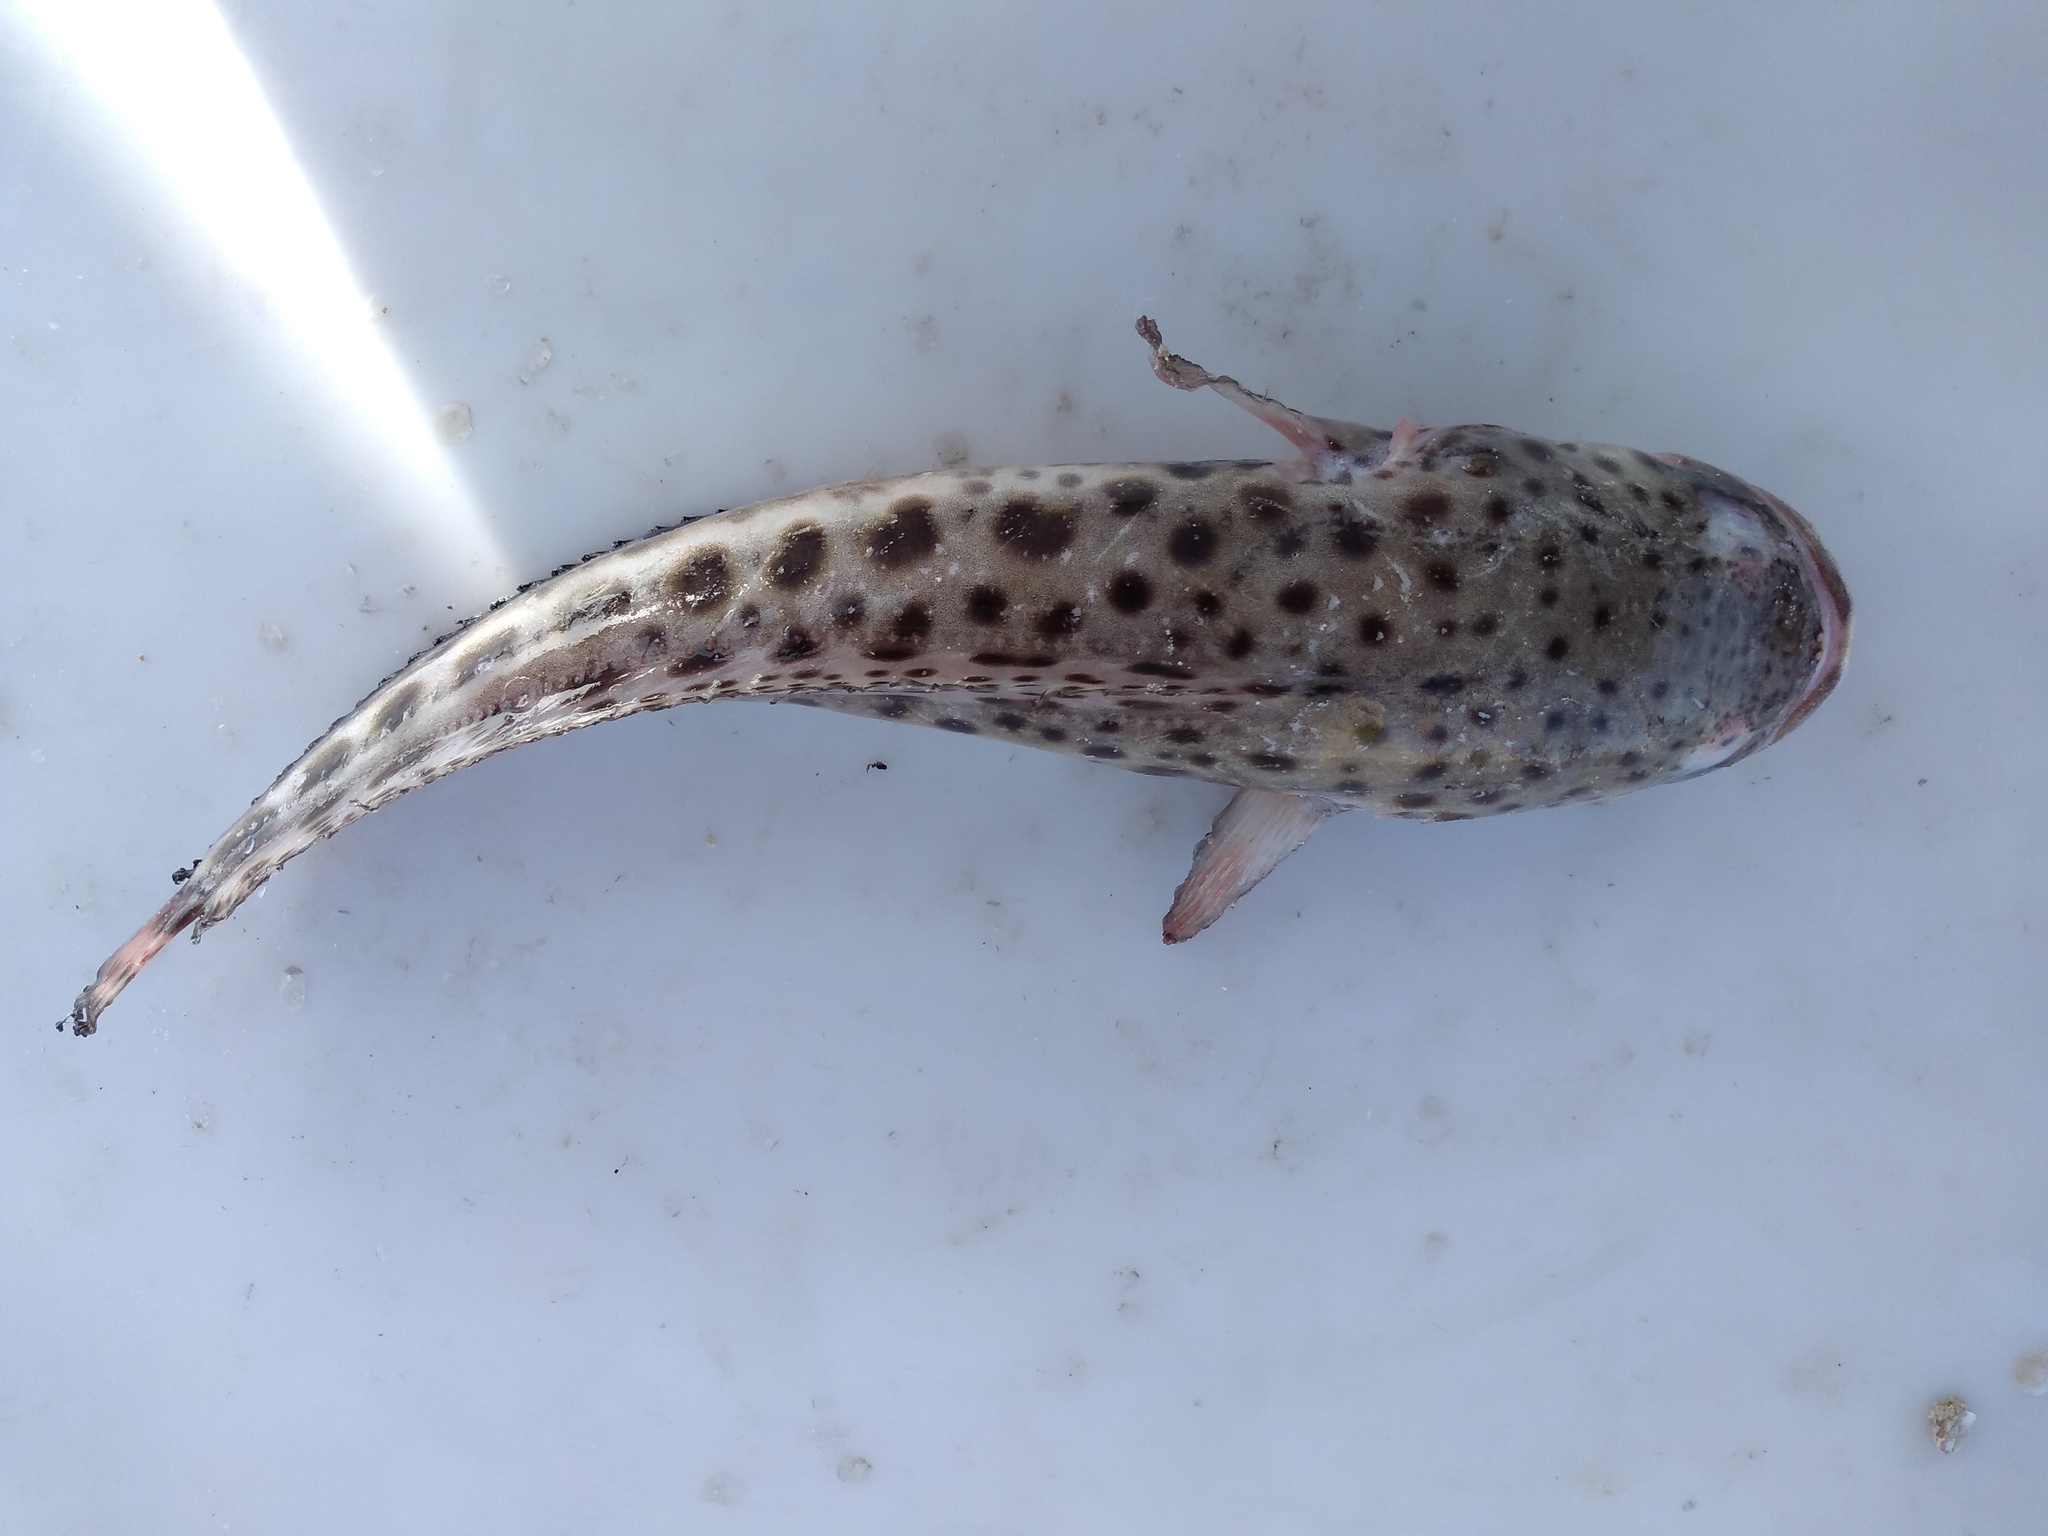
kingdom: Animalia
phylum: Chordata
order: Batrachoidiformes
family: Batrachoididae
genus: Porichthys
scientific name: Porichthys plectrodon
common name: Atlantic midshipman
